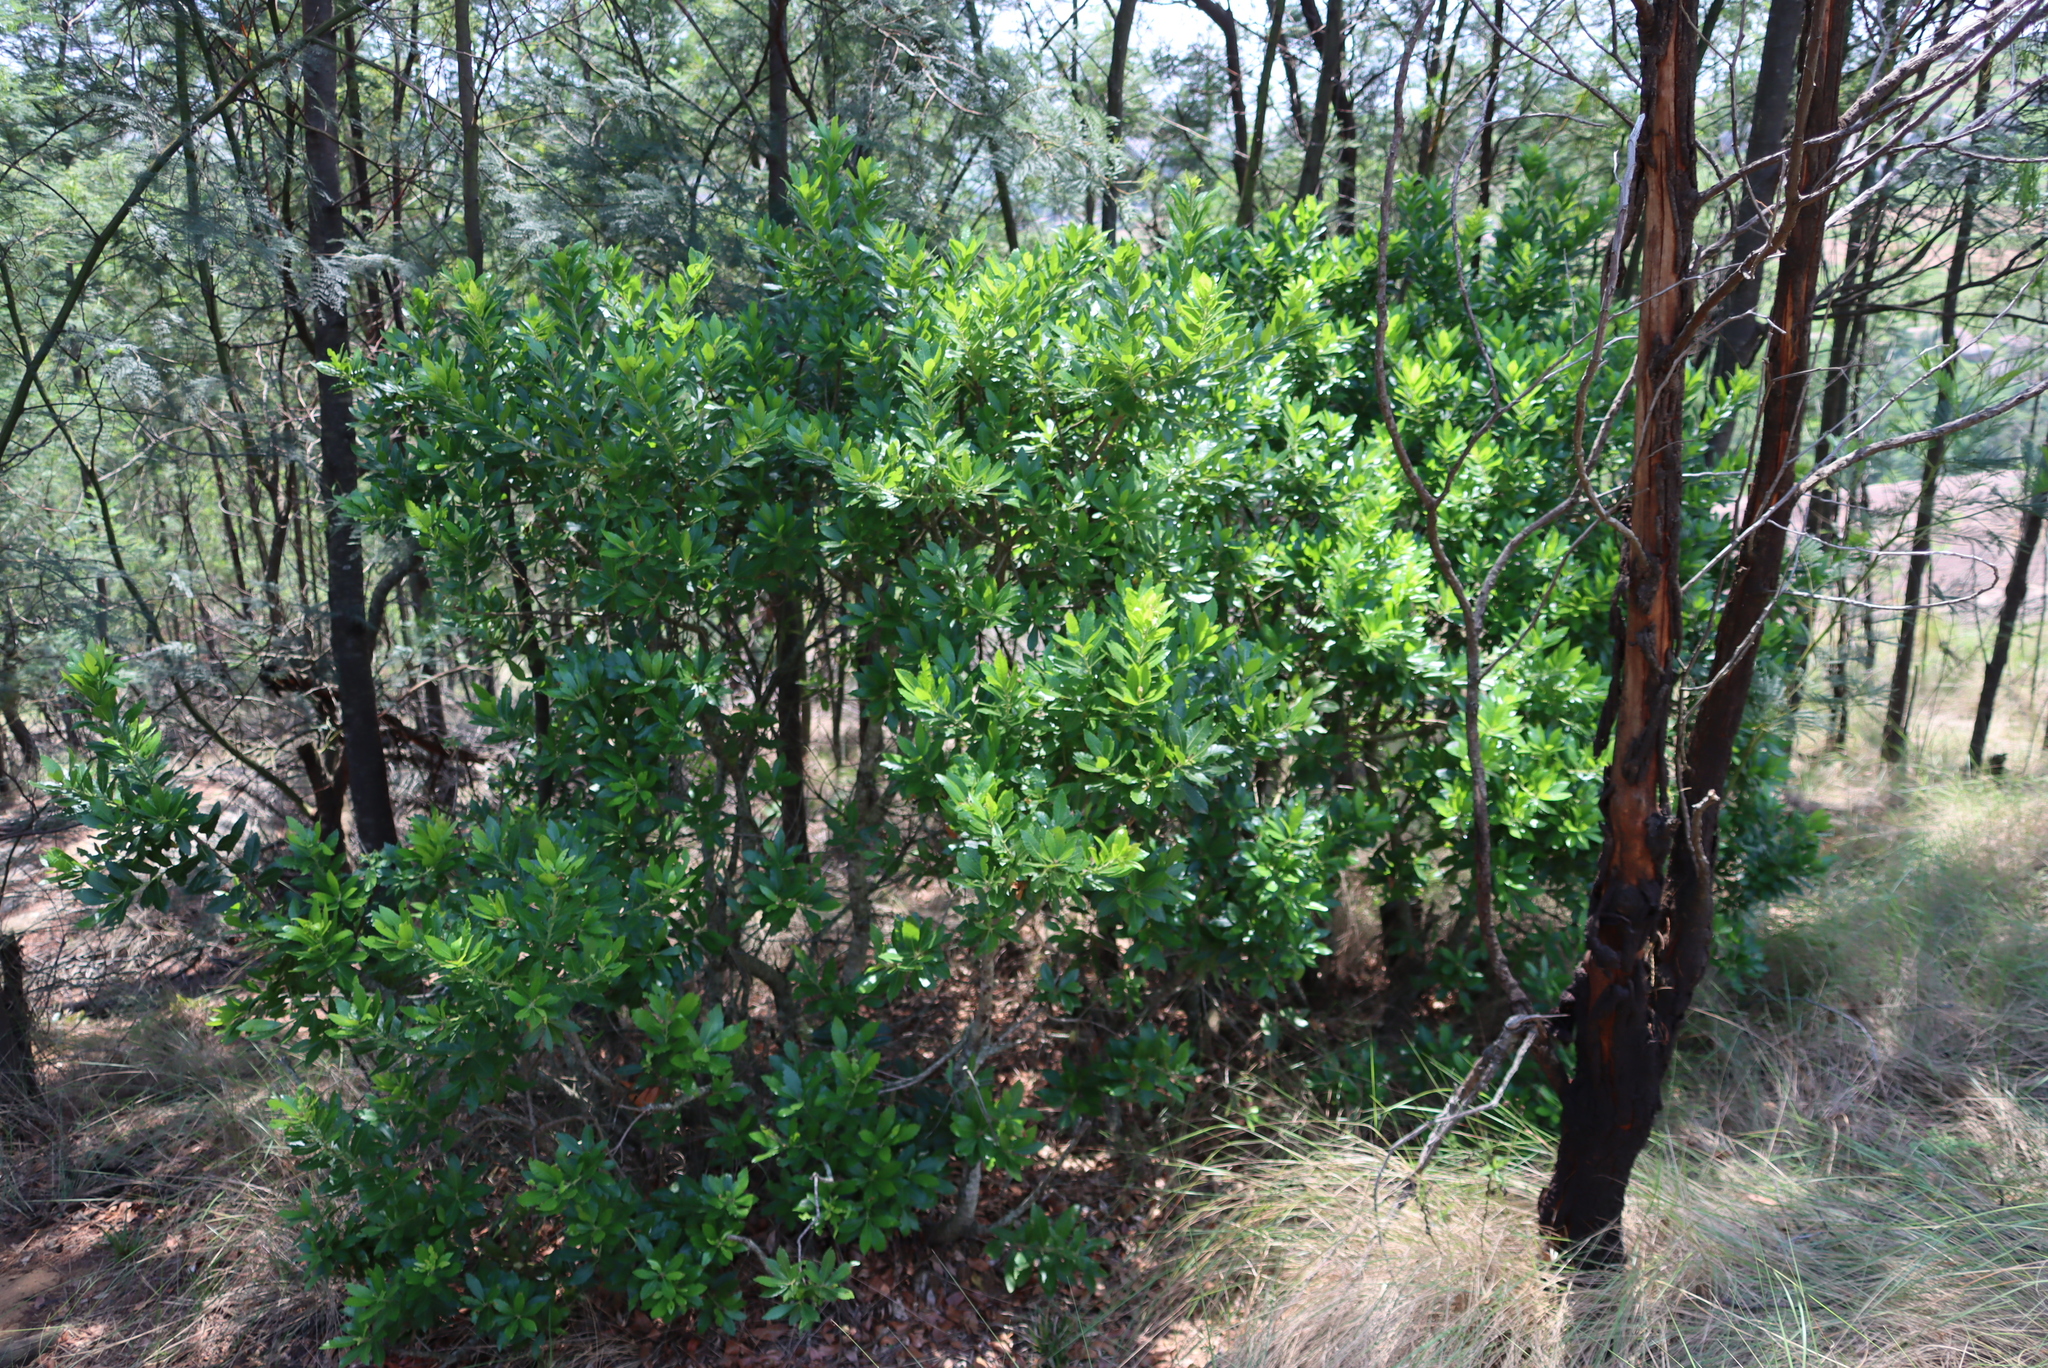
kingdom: Plantae
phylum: Tracheophyta
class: Magnoliopsida
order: Fagales
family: Myricaceae
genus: Morella
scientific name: Morella pilulifera
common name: Broad-leaved waxberry
